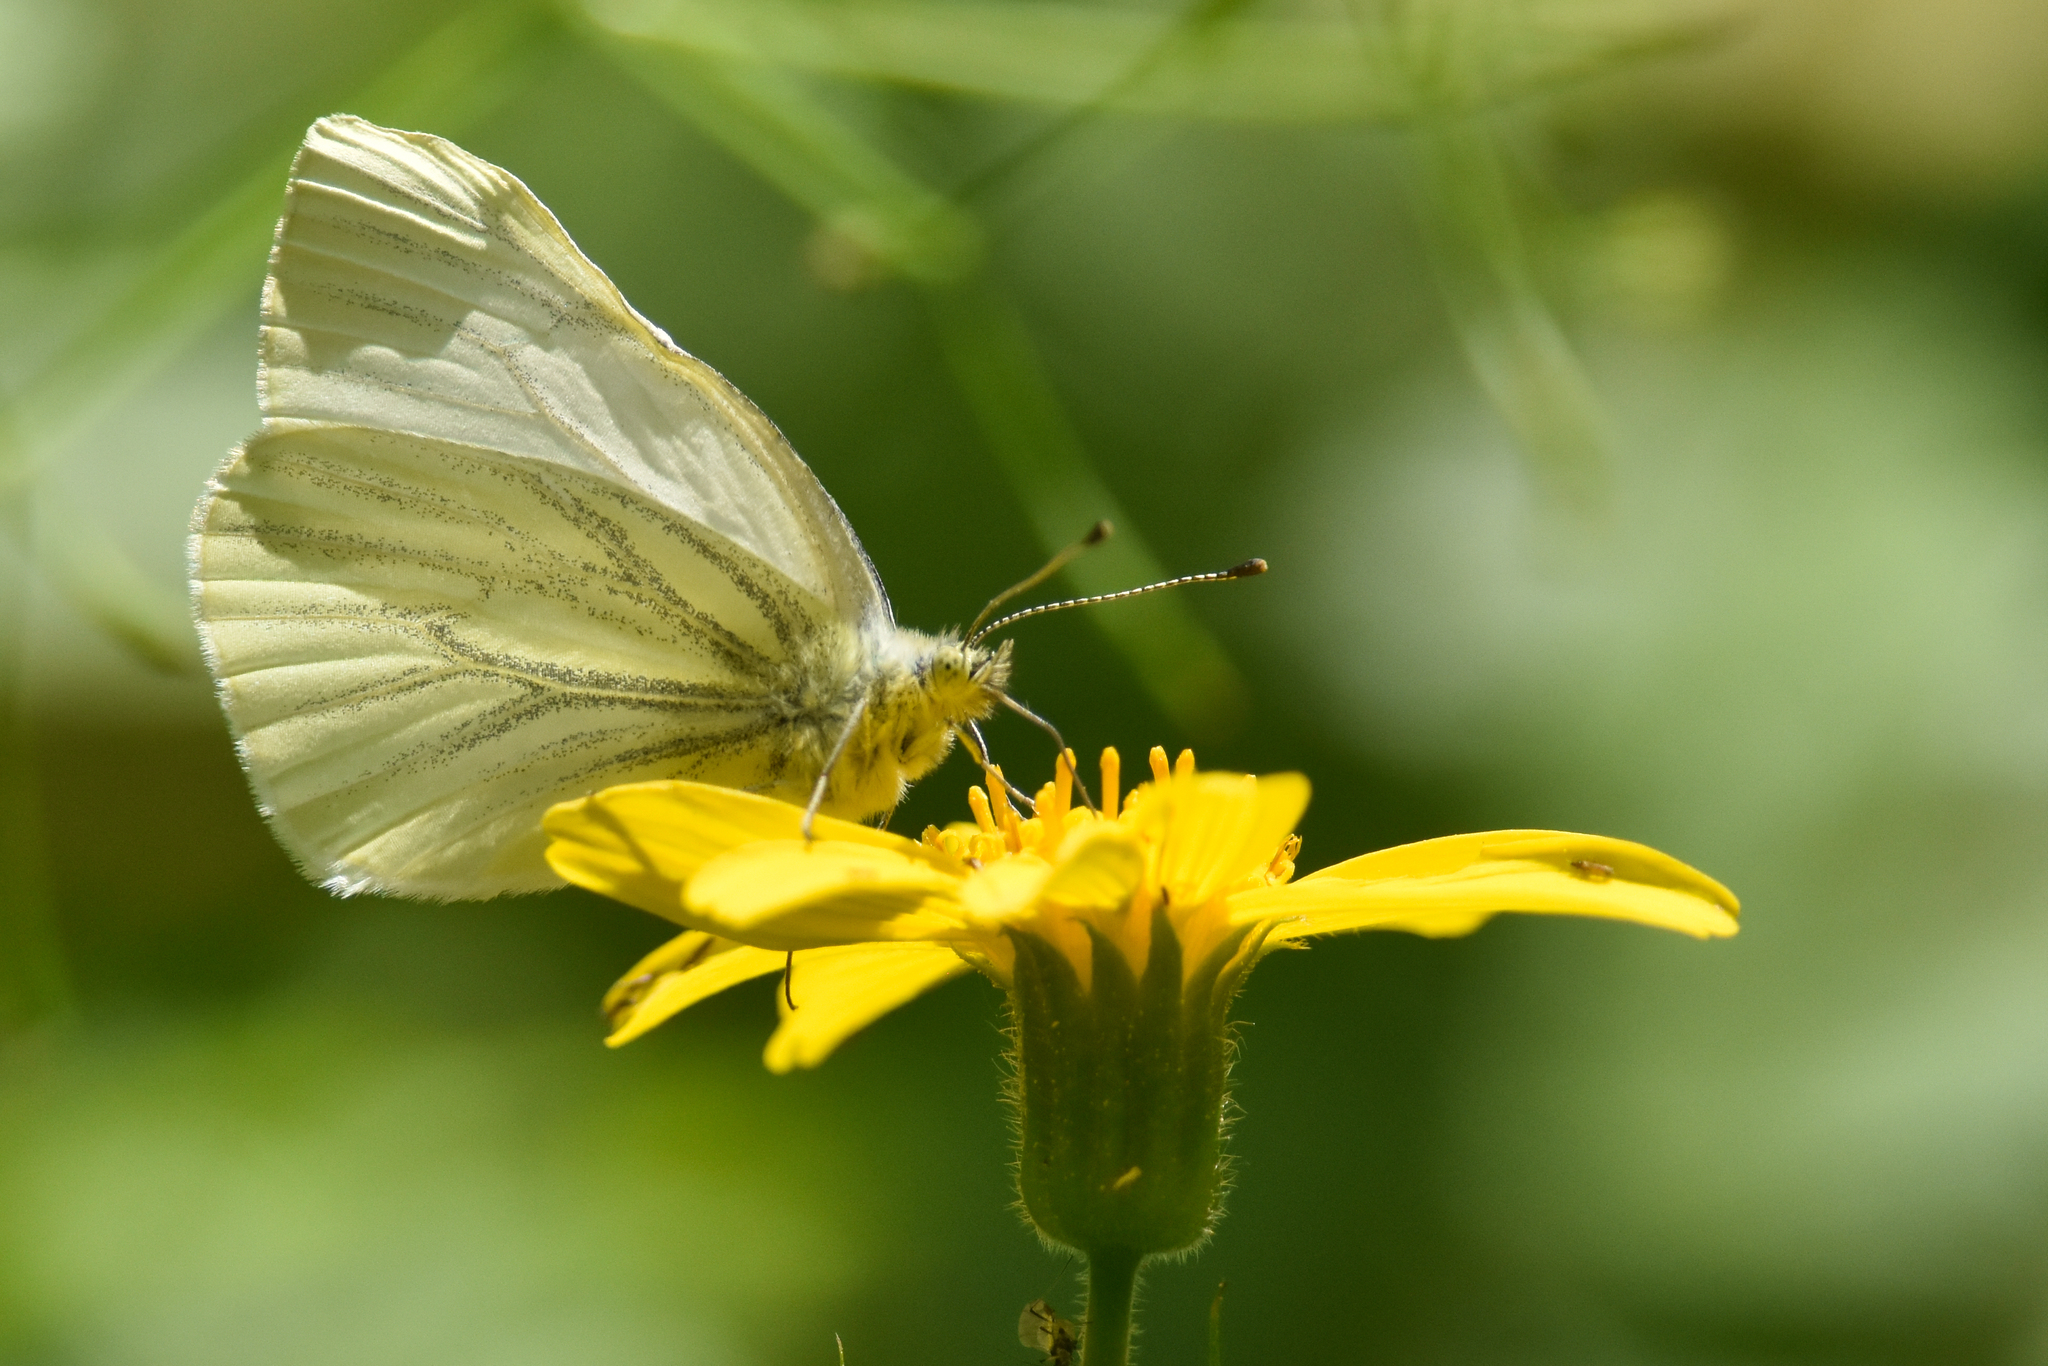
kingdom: Animalia
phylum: Arthropoda
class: Insecta
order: Lepidoptera
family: Pieridae
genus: Pieris
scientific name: Pieris marginalis
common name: Margined white
